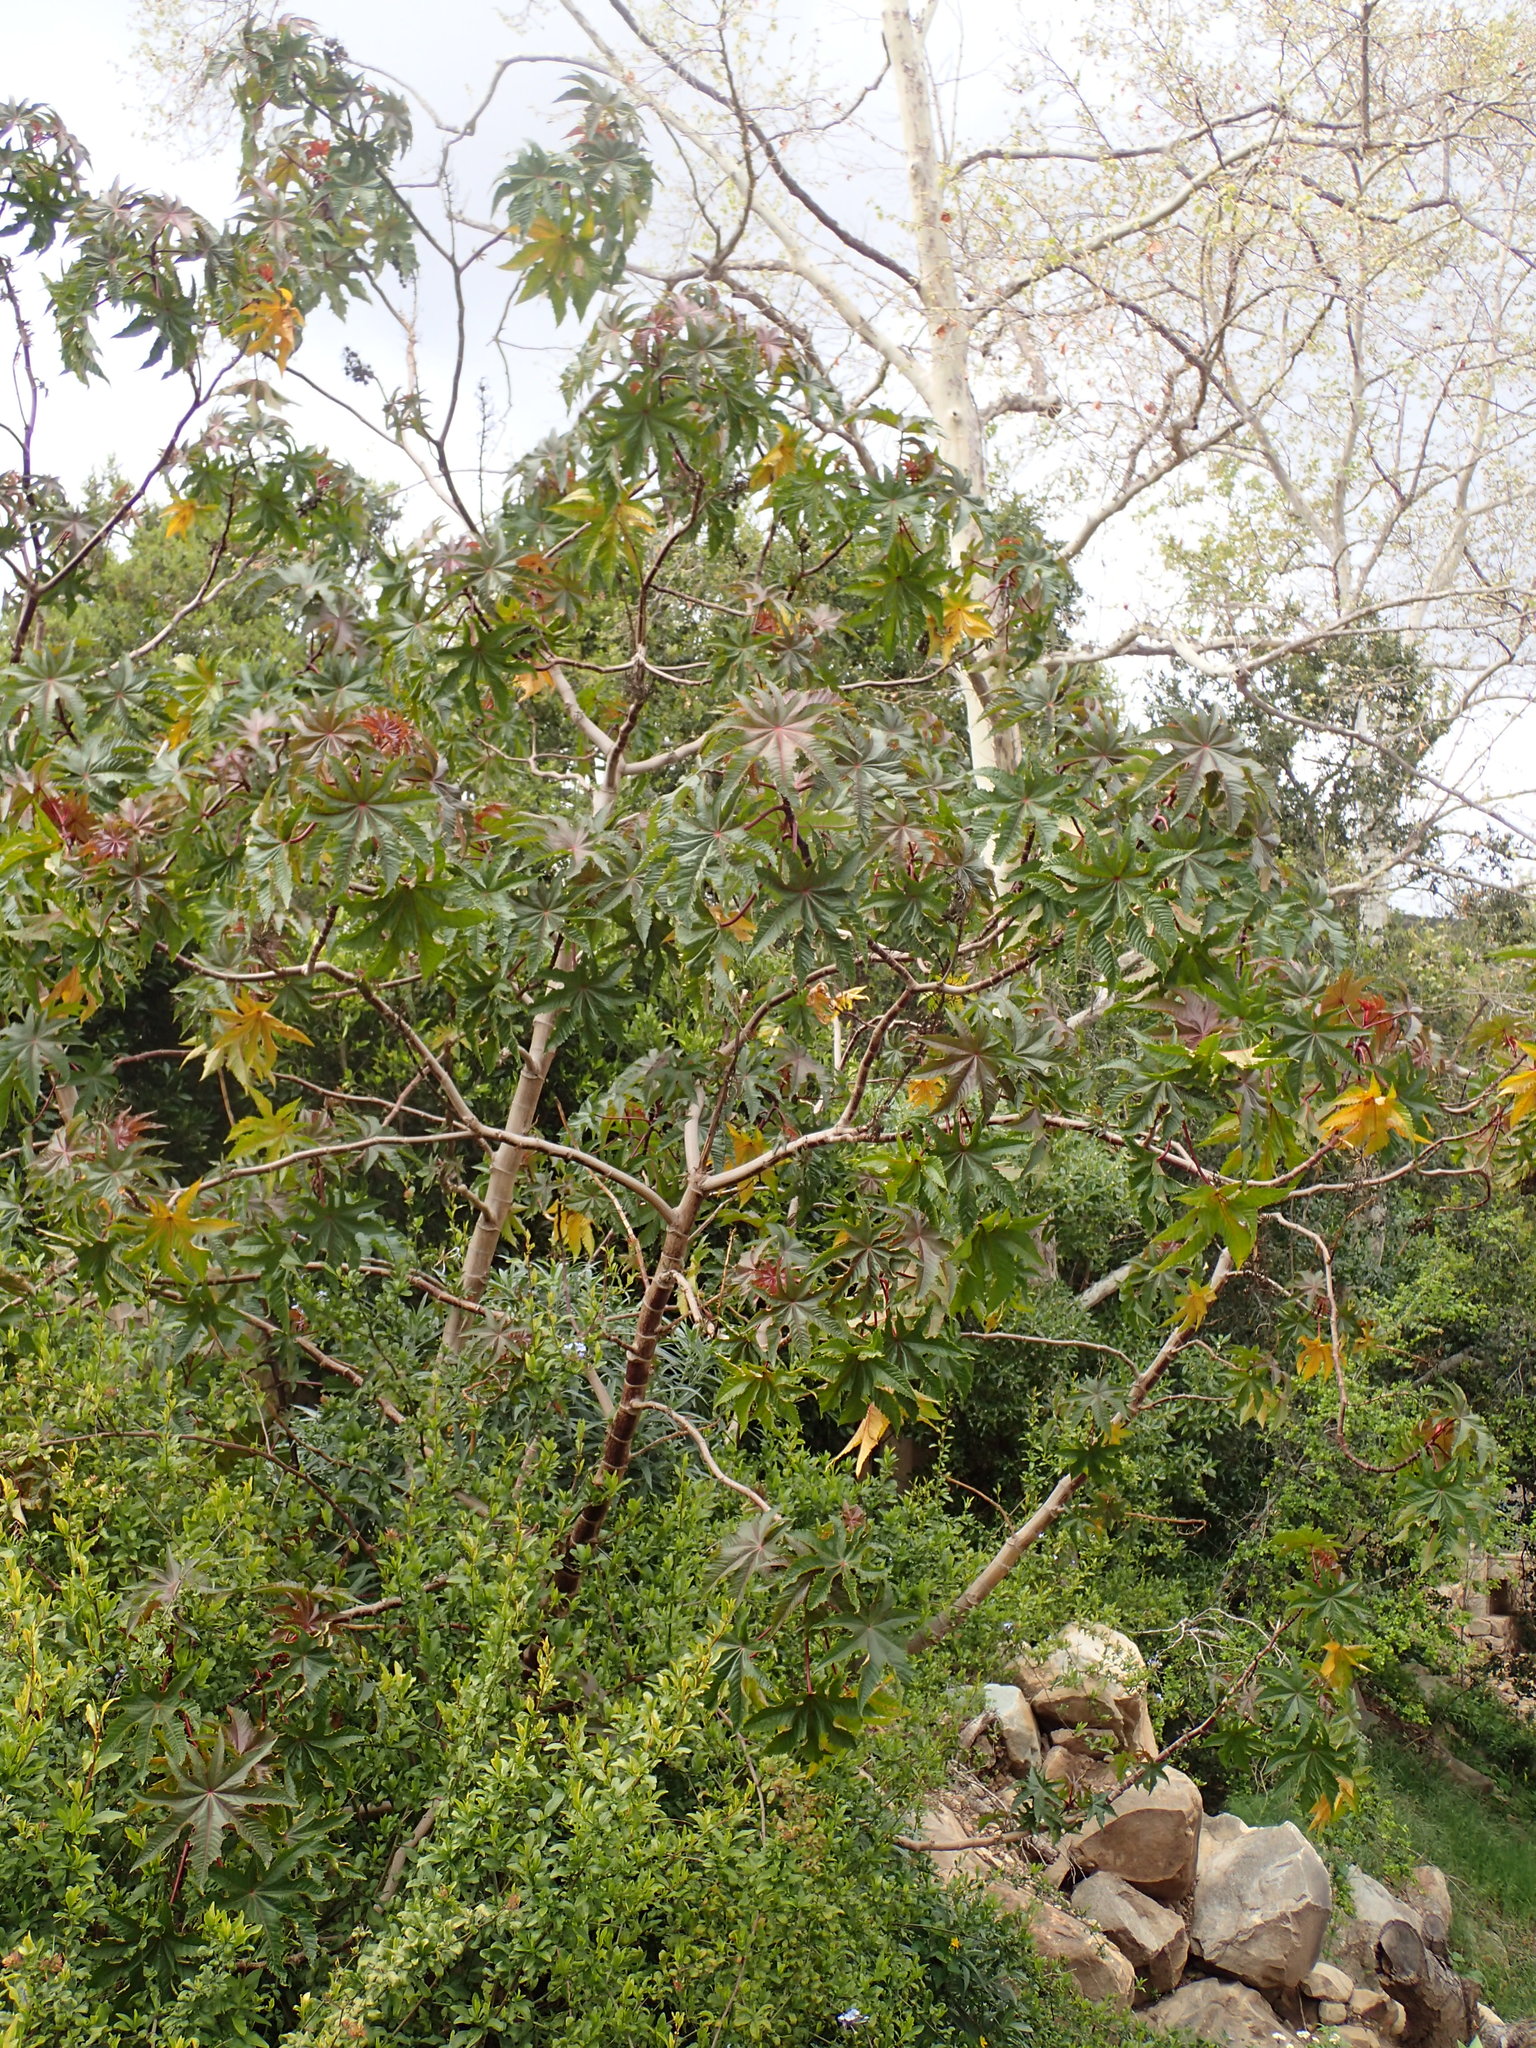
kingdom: Plantae
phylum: Tracheophyta
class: Magnoliopsida
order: Malpighiales
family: Euphorbiaceae
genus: Ricinus
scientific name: Ricinus communis
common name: Castor-oil-plant
